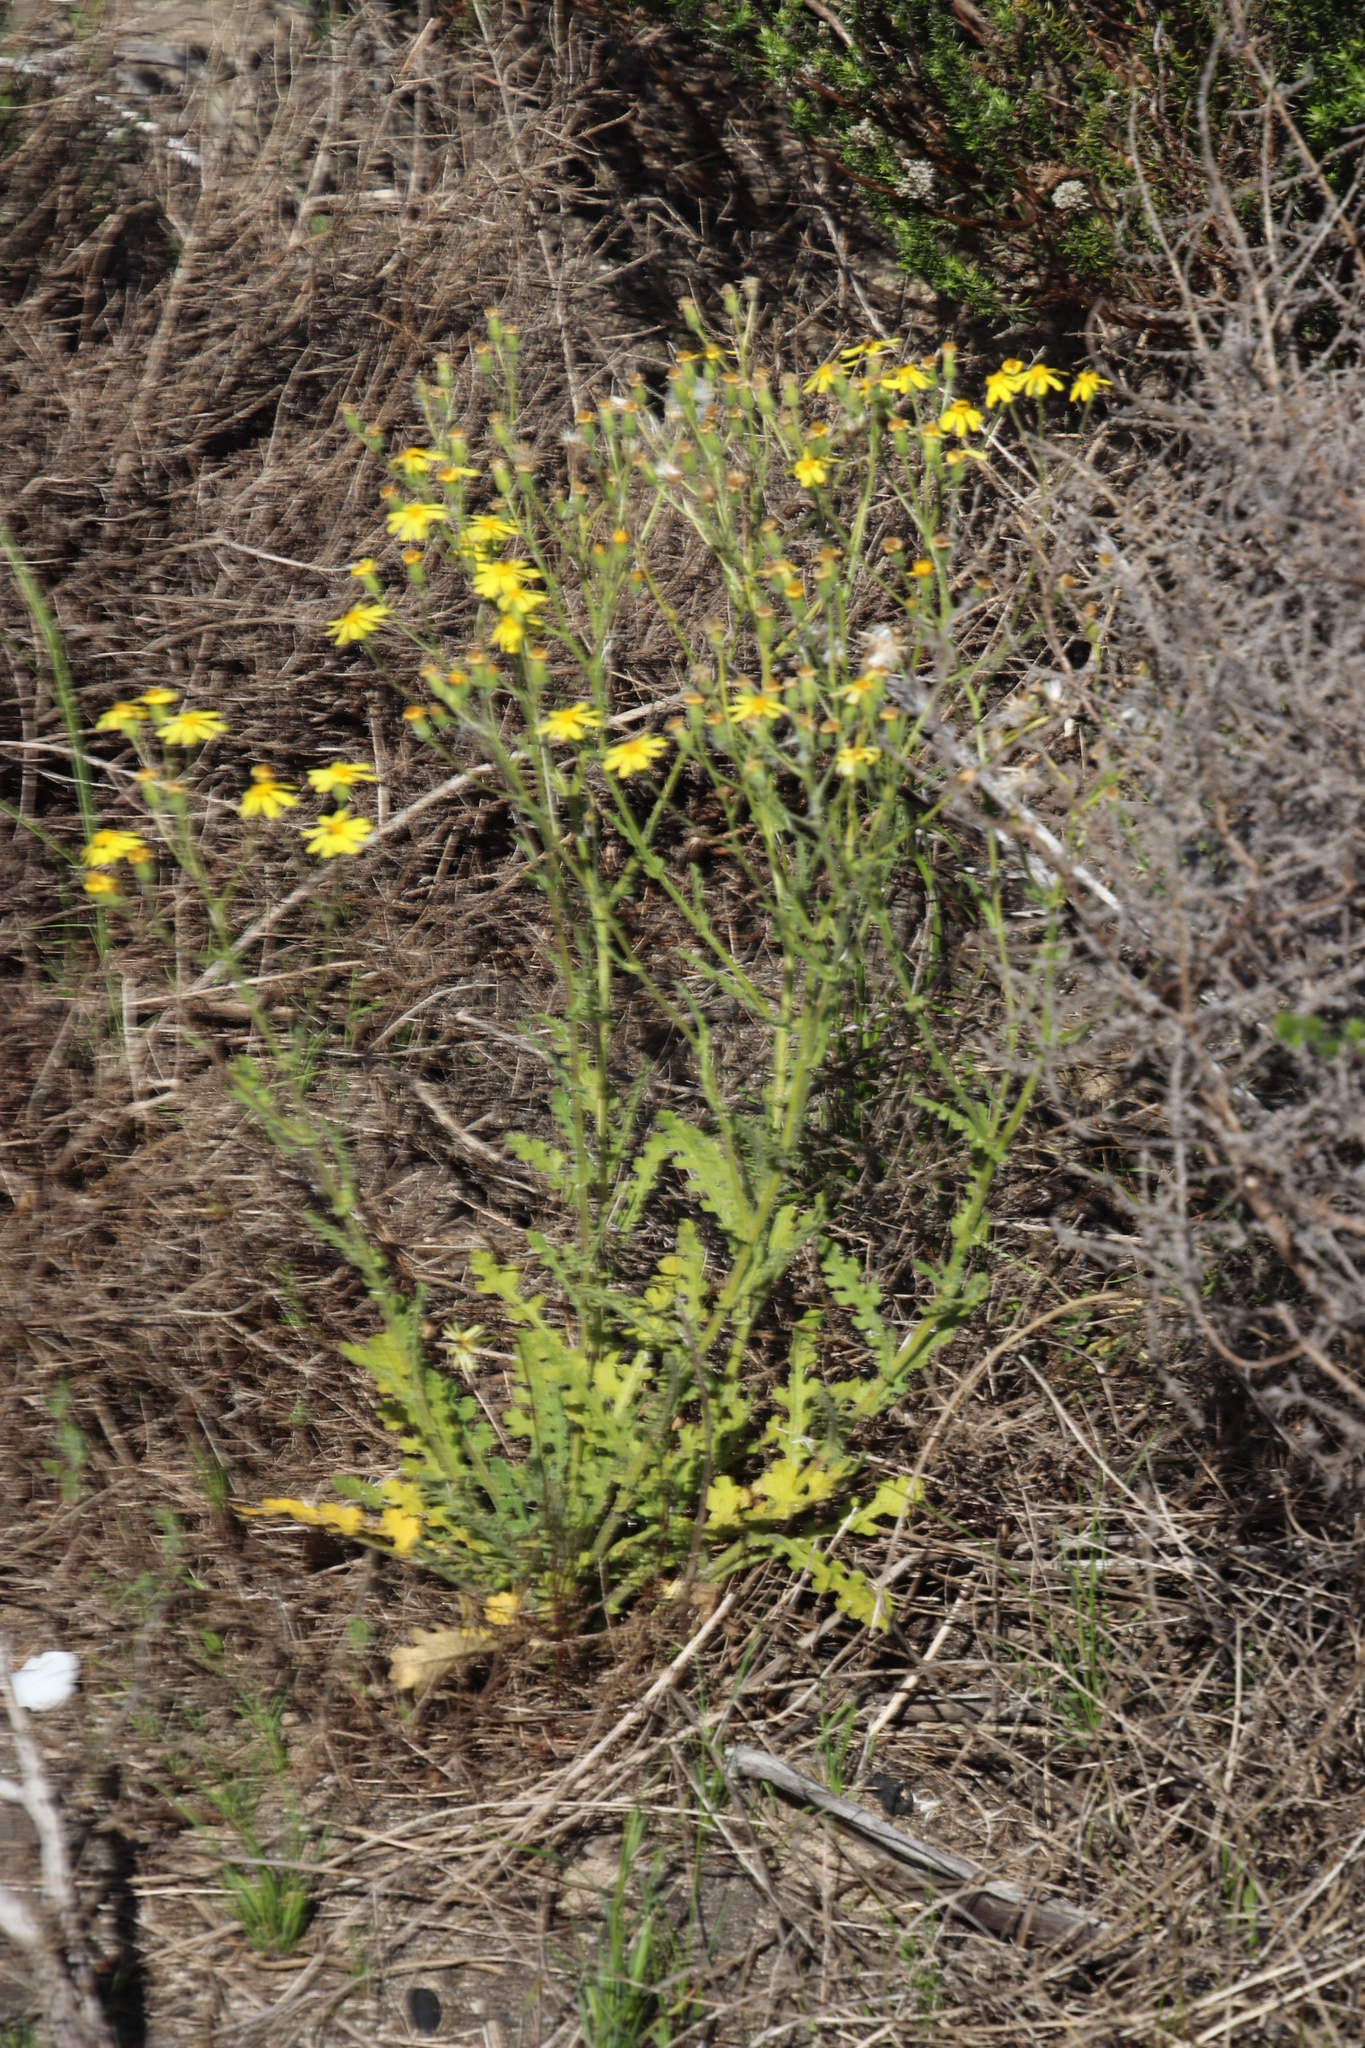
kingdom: Plantae
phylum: Tracheophyta
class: Magnoliopsida
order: Asterales
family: Asteraceae
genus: Senecio
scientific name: Senecio hastatus
